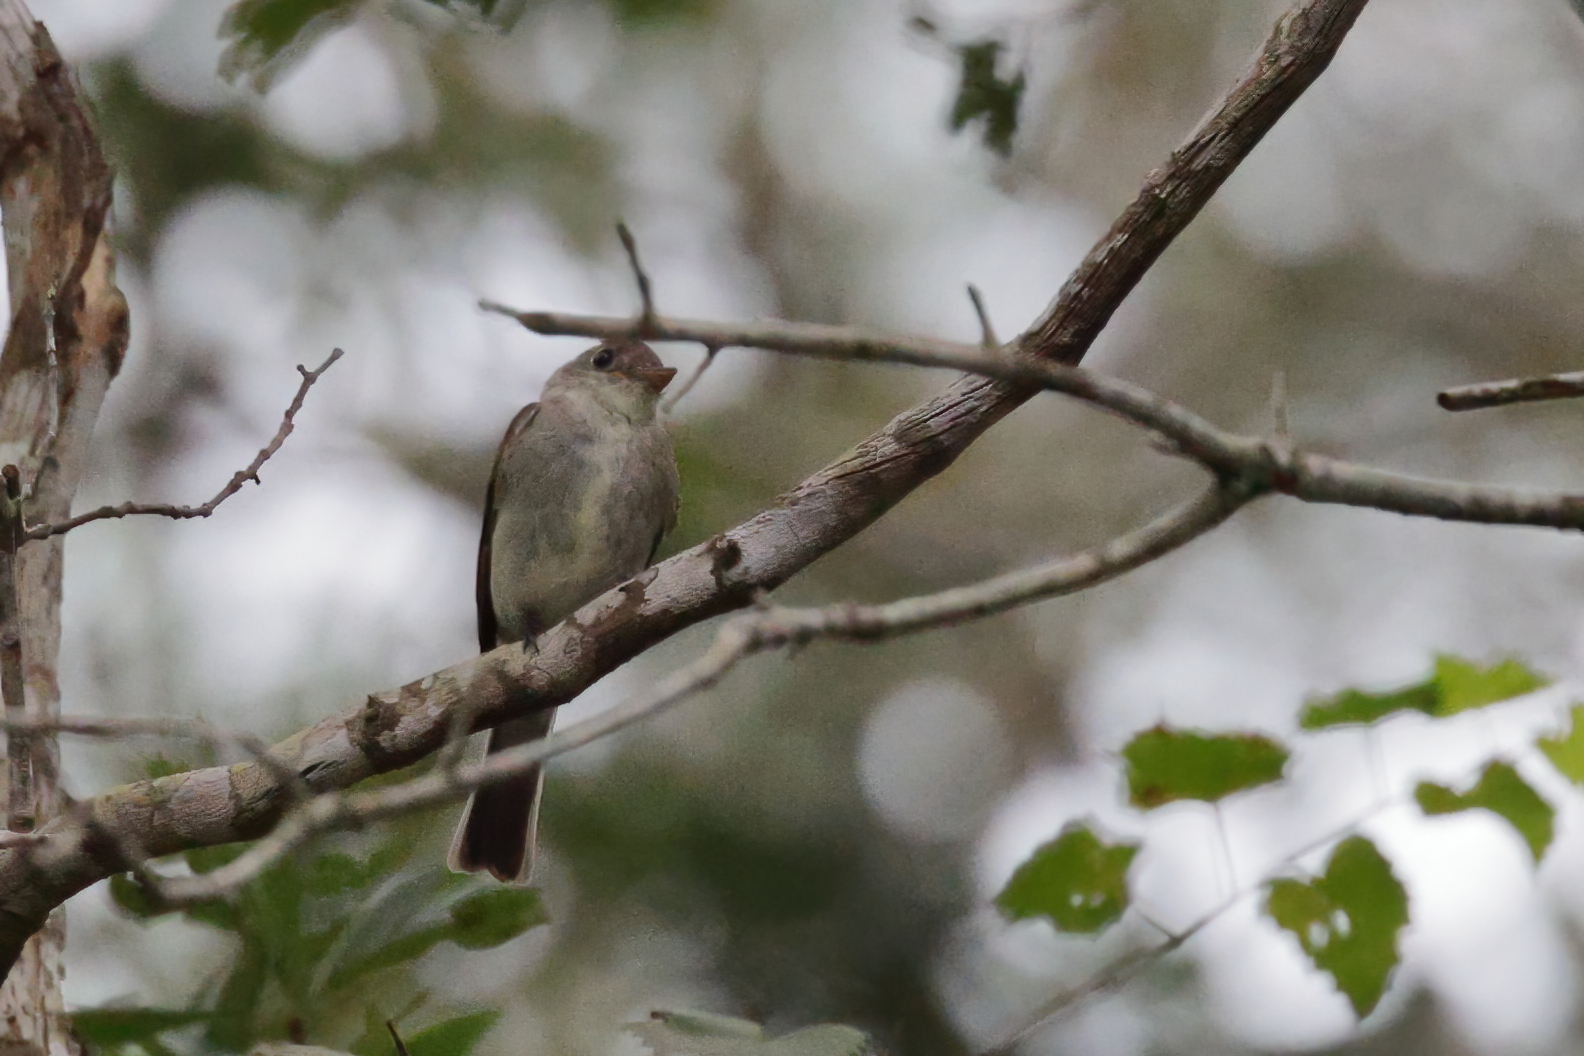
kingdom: Animalia
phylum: Chordata
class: Aves
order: Passeriformes
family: Tyrannidae
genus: Contopus
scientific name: Contopus virens
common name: Eastern wood-pewee
